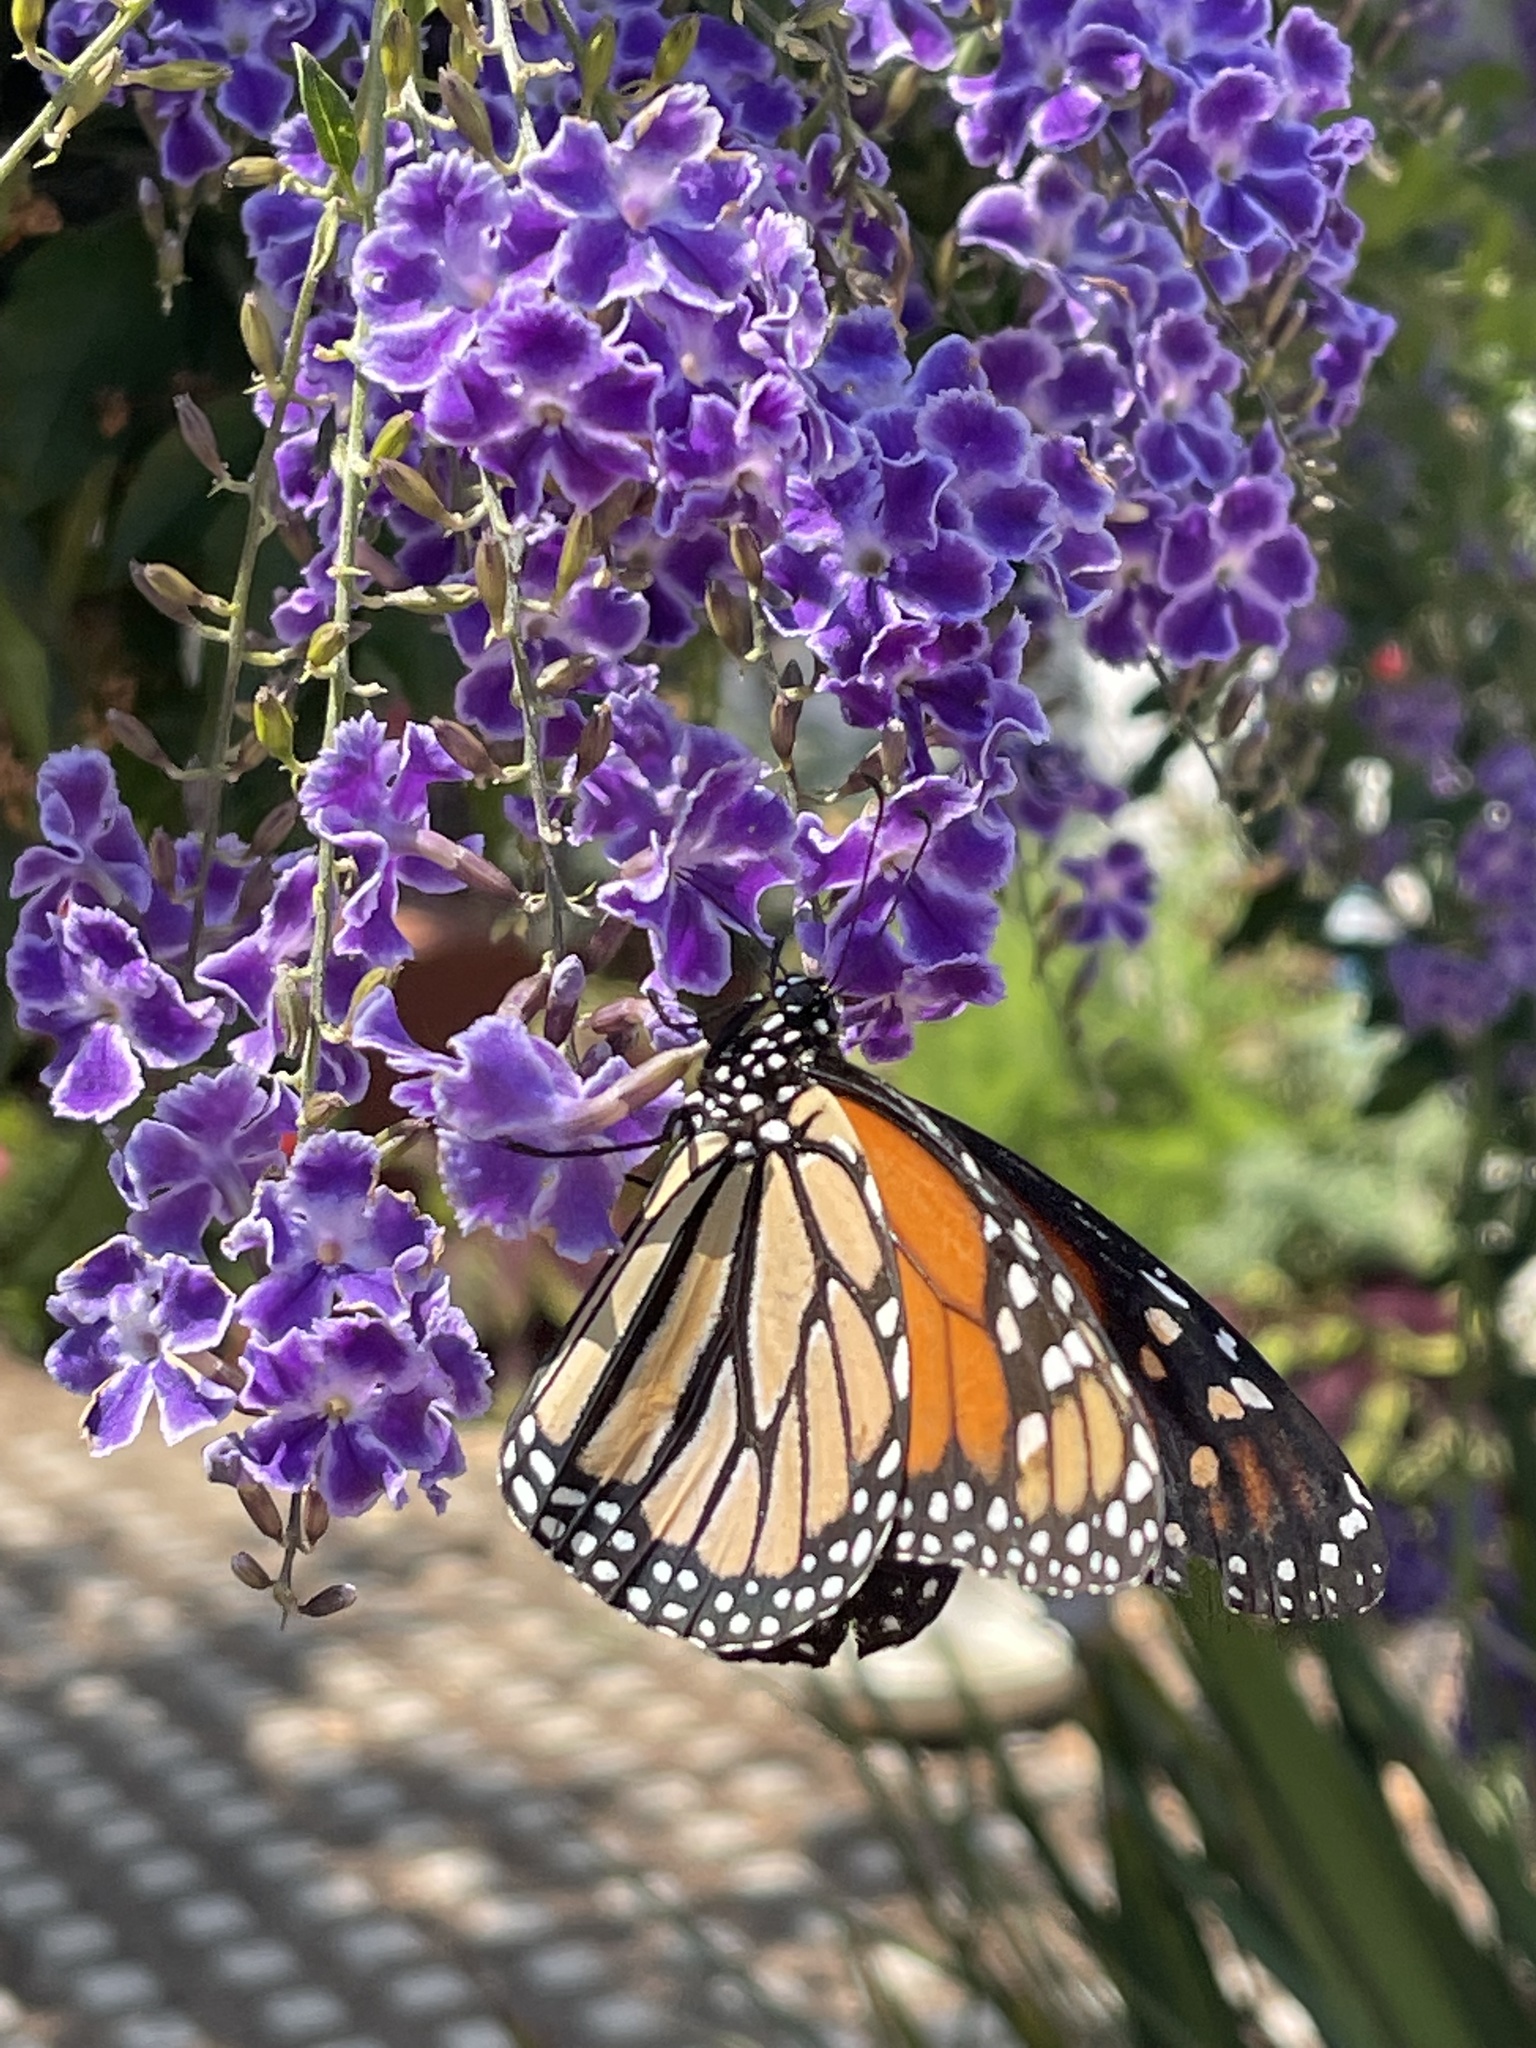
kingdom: Animalia
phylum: Arthropoda
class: Insecta
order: Lepidoptera
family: Nymphalidae
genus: Danaus
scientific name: Danaus plexippus
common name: Monarch
